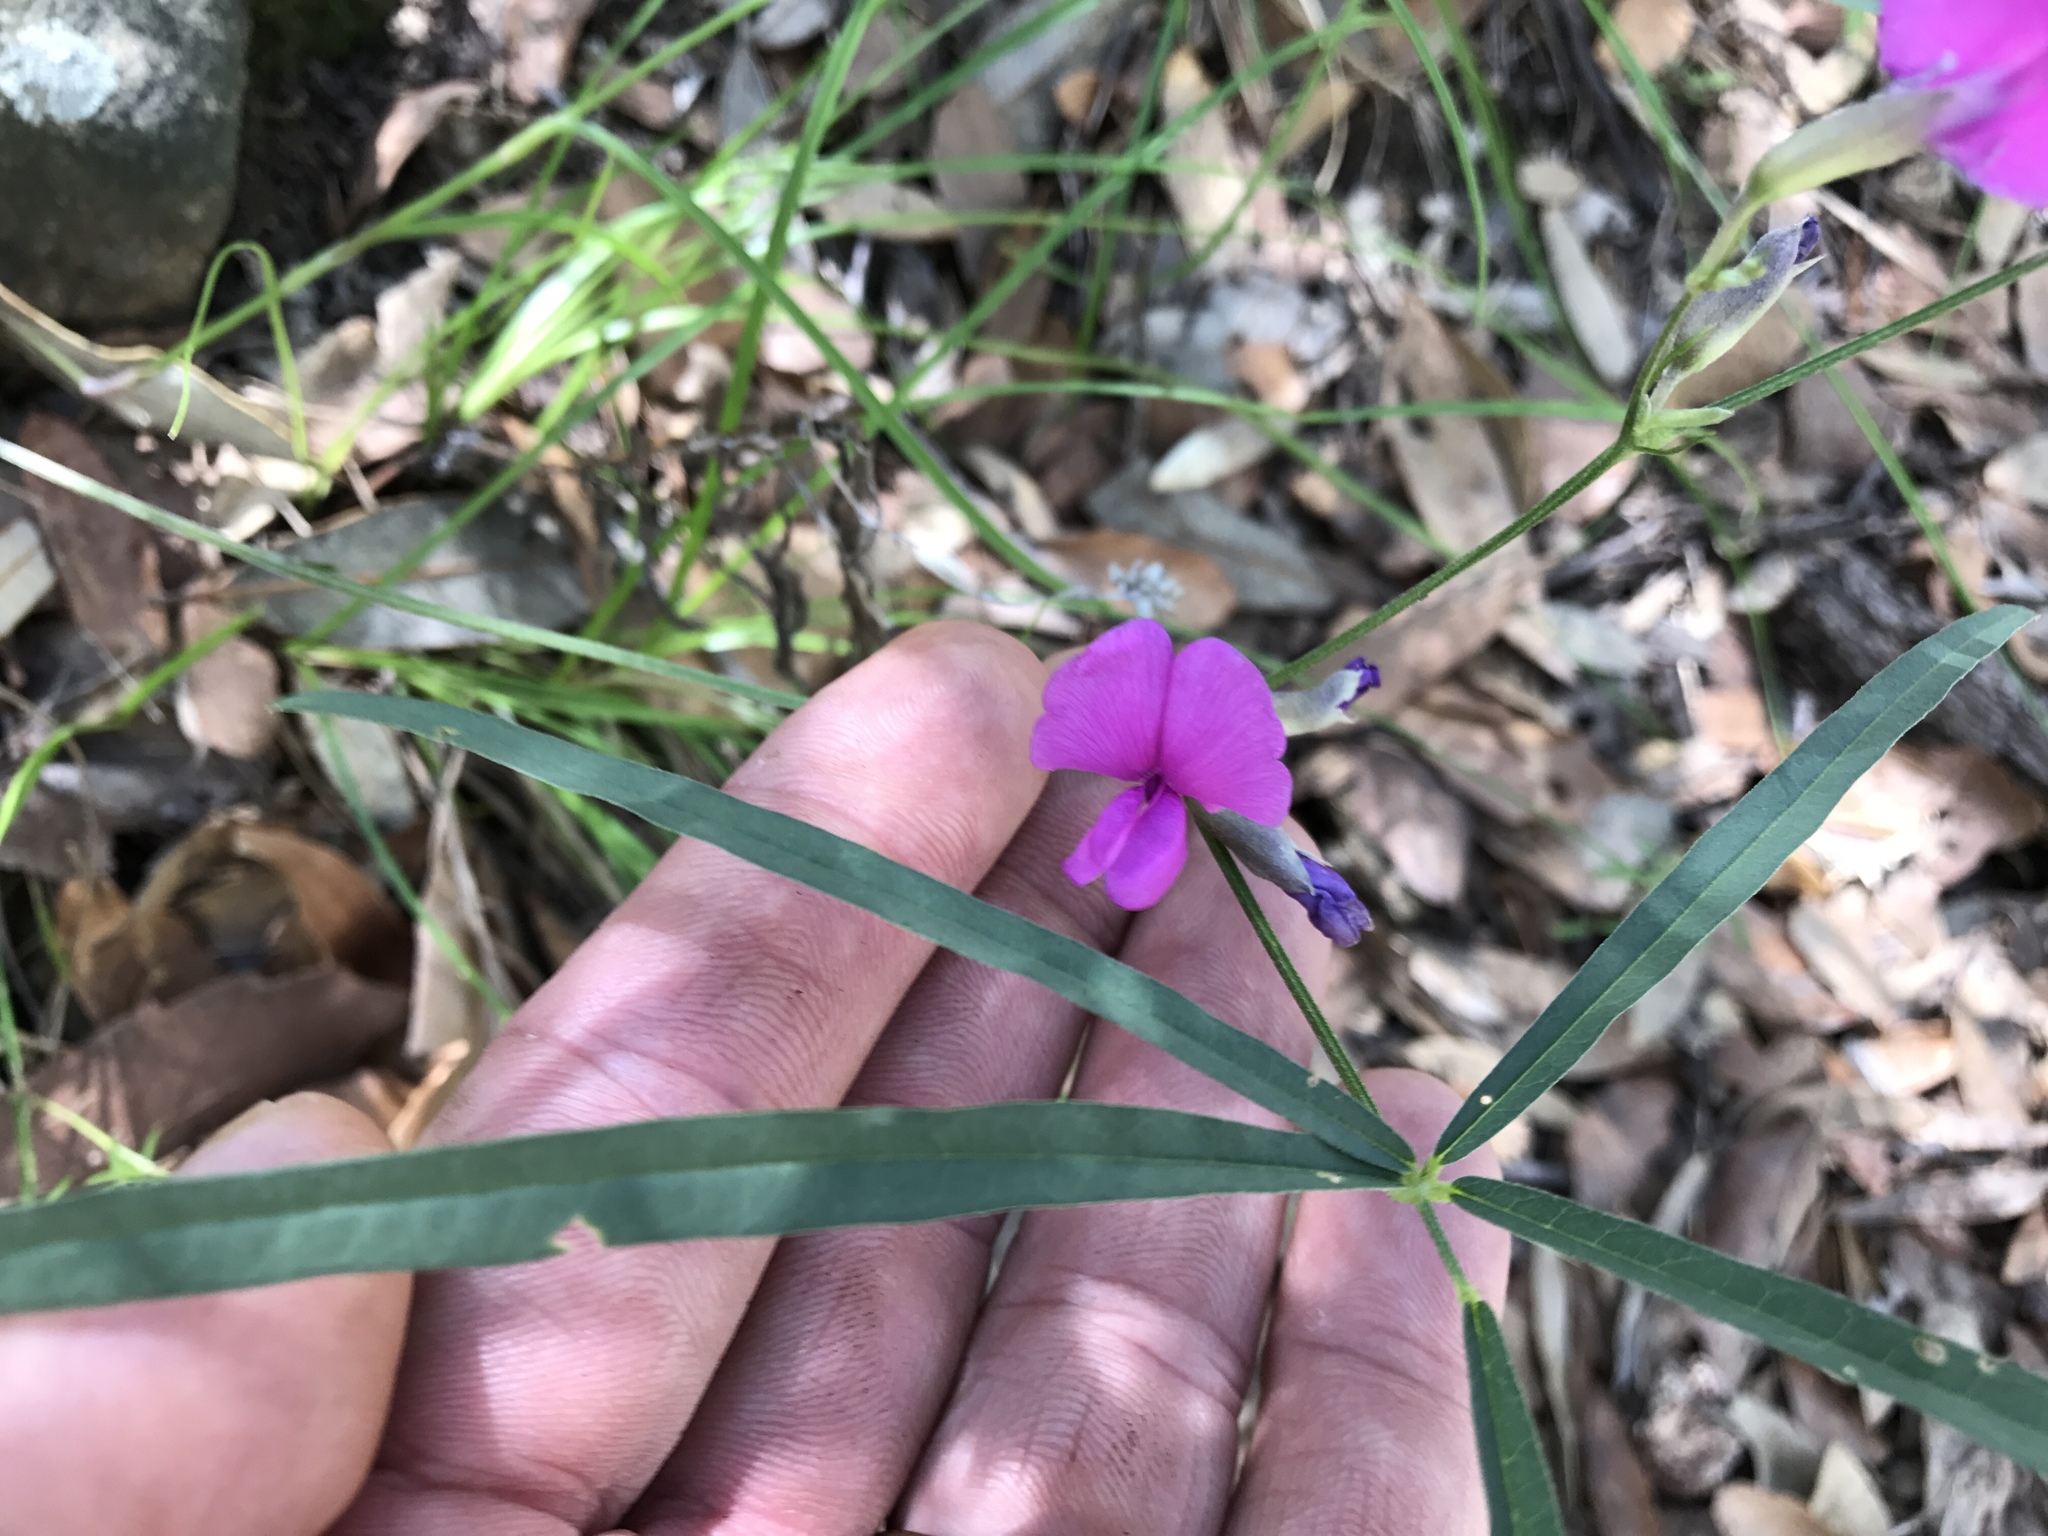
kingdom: Plantae
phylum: Tracheophyta
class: Magnoliopsida
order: Fabales
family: Fabaceae
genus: Cologania
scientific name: Cologania angustifolia
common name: Longleaf cologania
